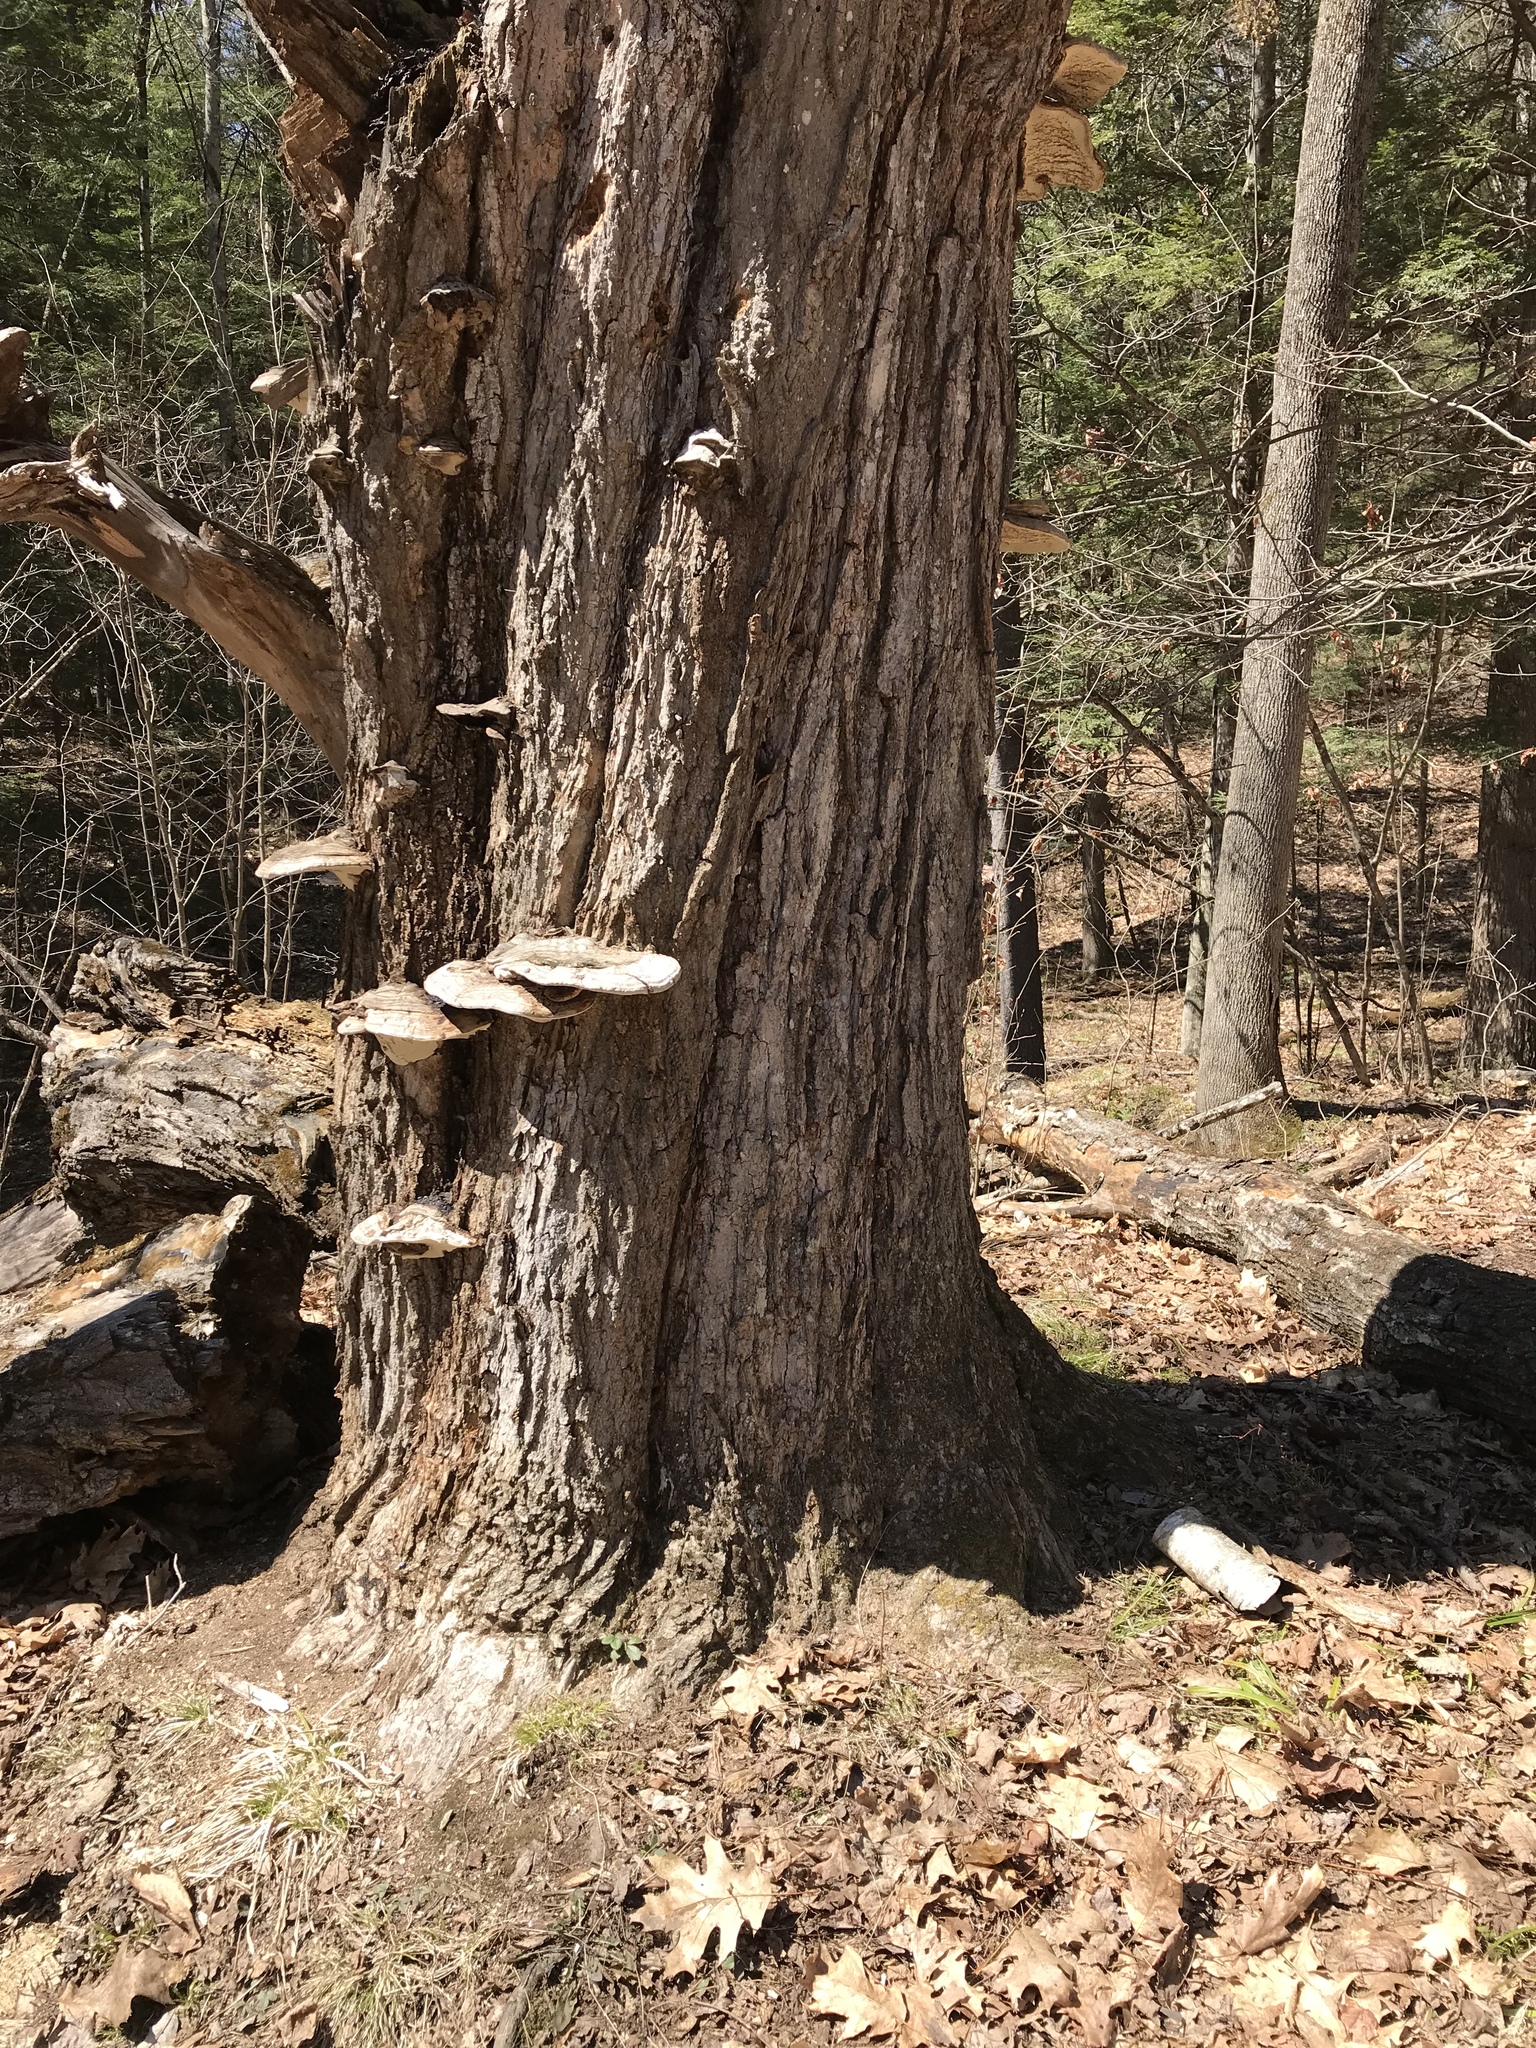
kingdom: Plantae
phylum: Tracheophyta
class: Magnoliopsida
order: Sapindales
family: Sapindaceae
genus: Acer
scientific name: Acer saccharum
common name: Sugar maple
